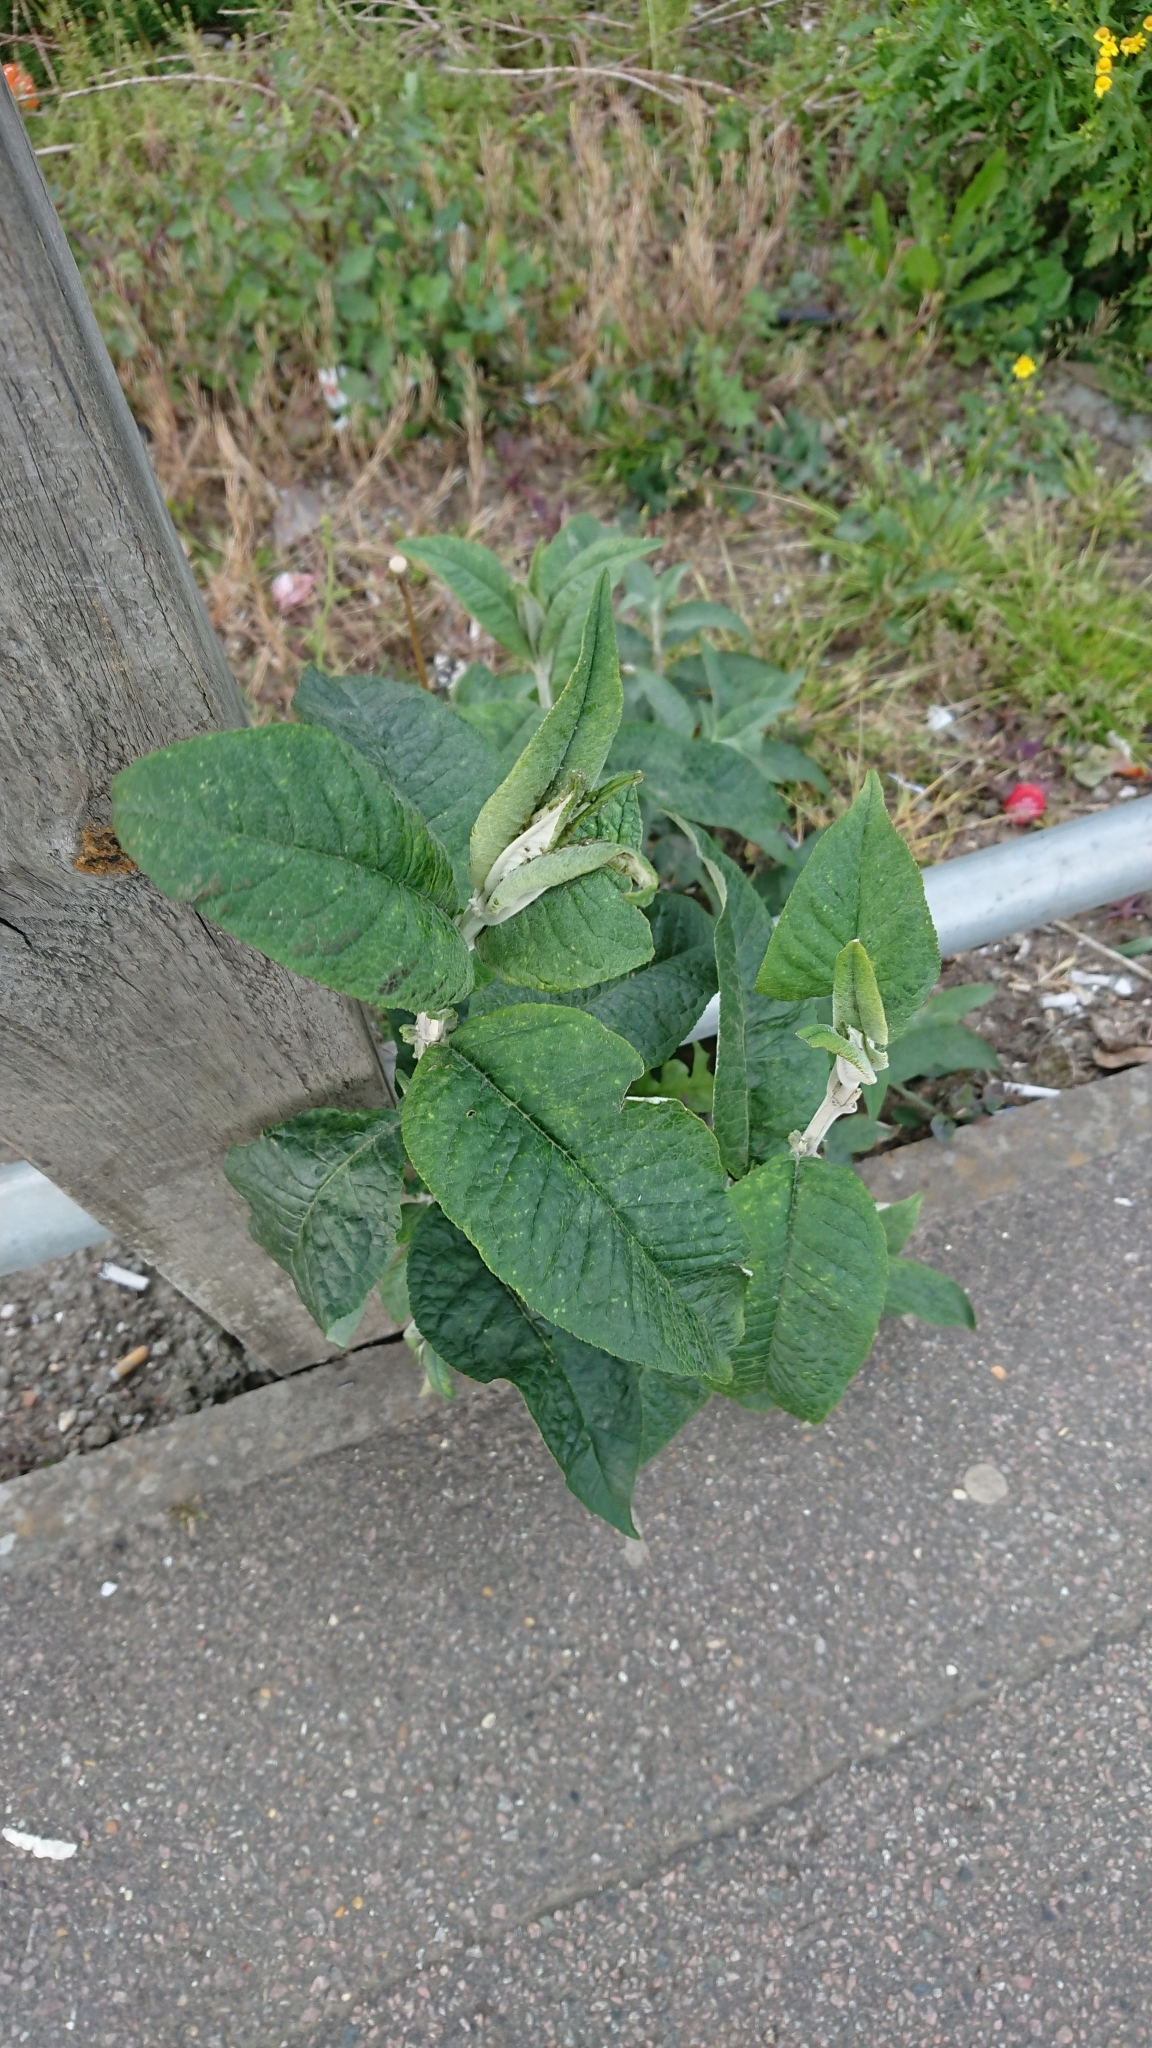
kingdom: Plantae
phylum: Tracheophyta
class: Magnoliopsida
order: Lamiales
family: Scrophulariaceae
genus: Buddleja
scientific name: Buddleja davidii
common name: Butterfly-bush
